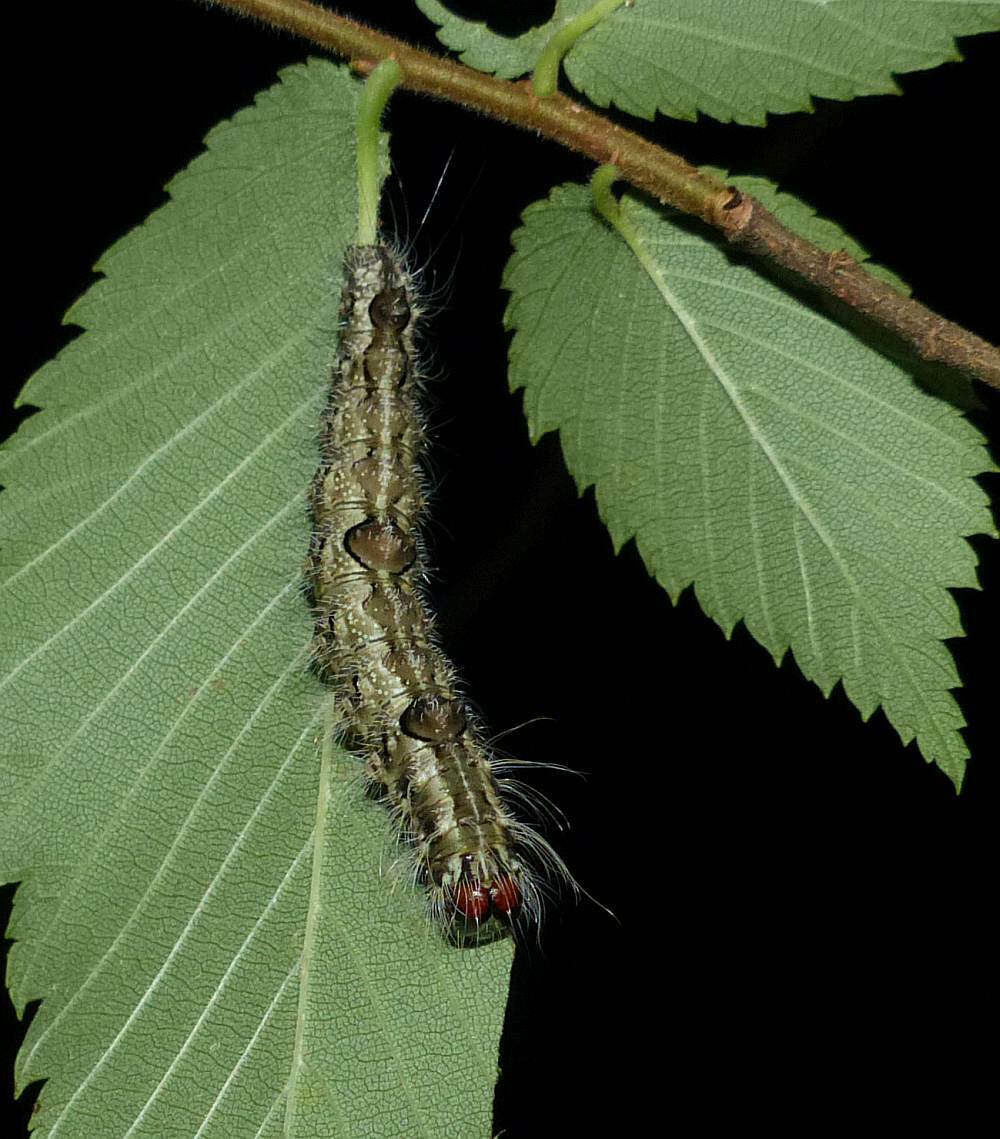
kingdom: Animalia
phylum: Arthropoda
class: Insecta
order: Lepidoptera
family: Noctuidae
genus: Acronicta
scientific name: Acronicta morula
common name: Ochre dagger
